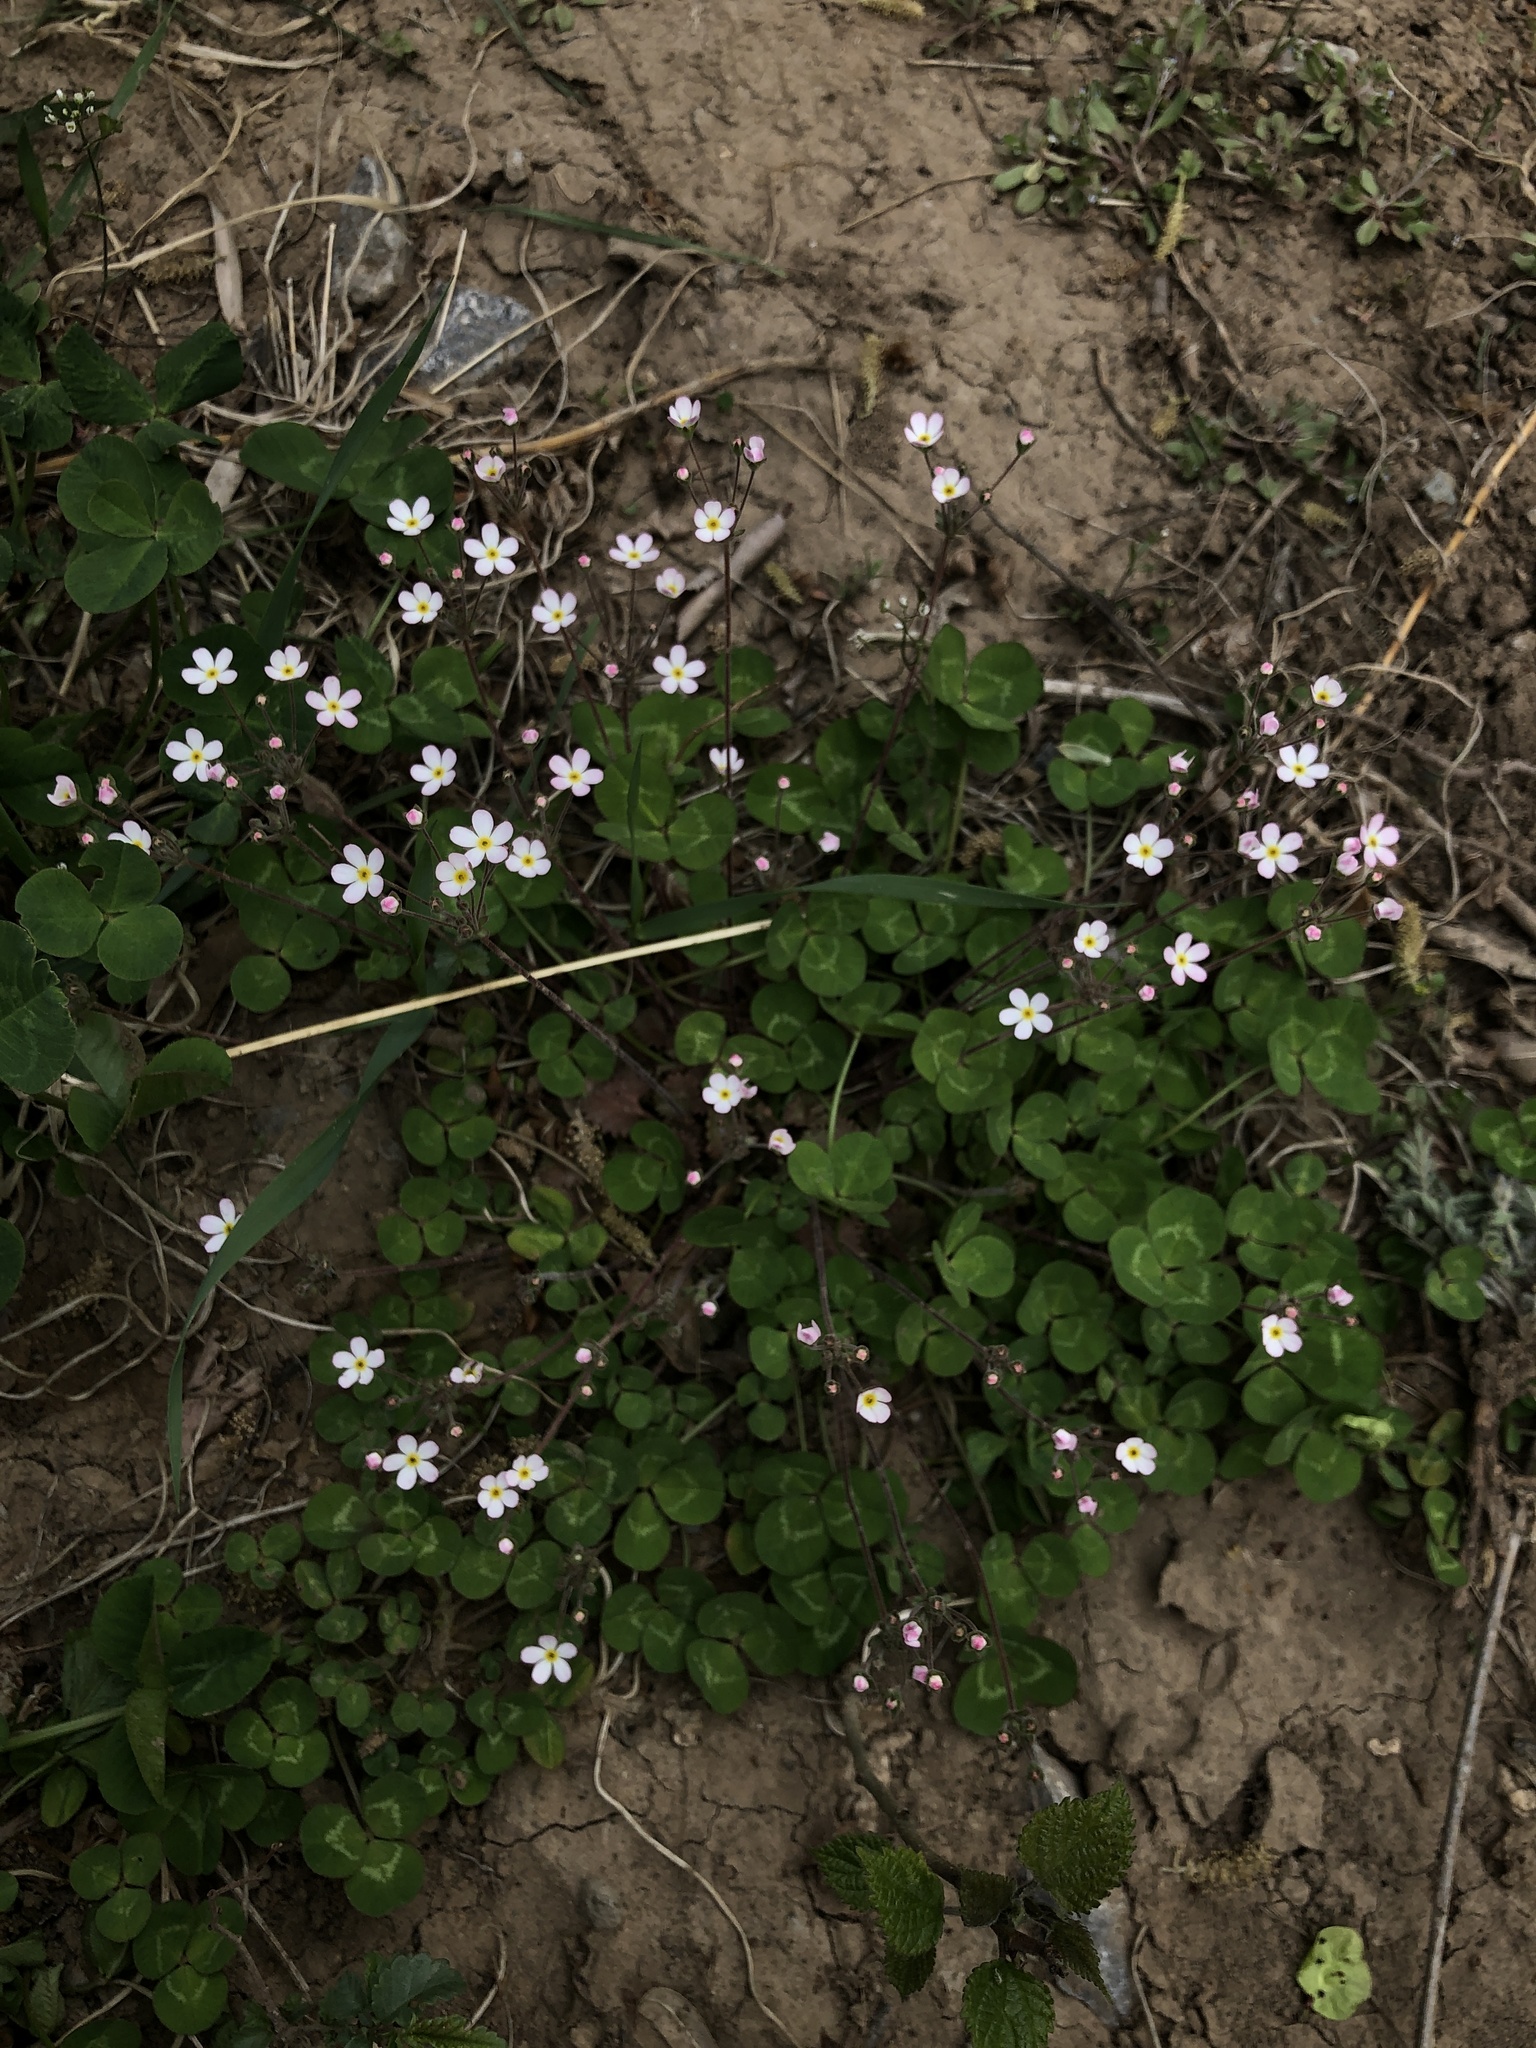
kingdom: Plantae
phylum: Tracheophyta
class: Magnoliopsida
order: Ericales
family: Primulaceae
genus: Androsace
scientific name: Androsace umbellata
